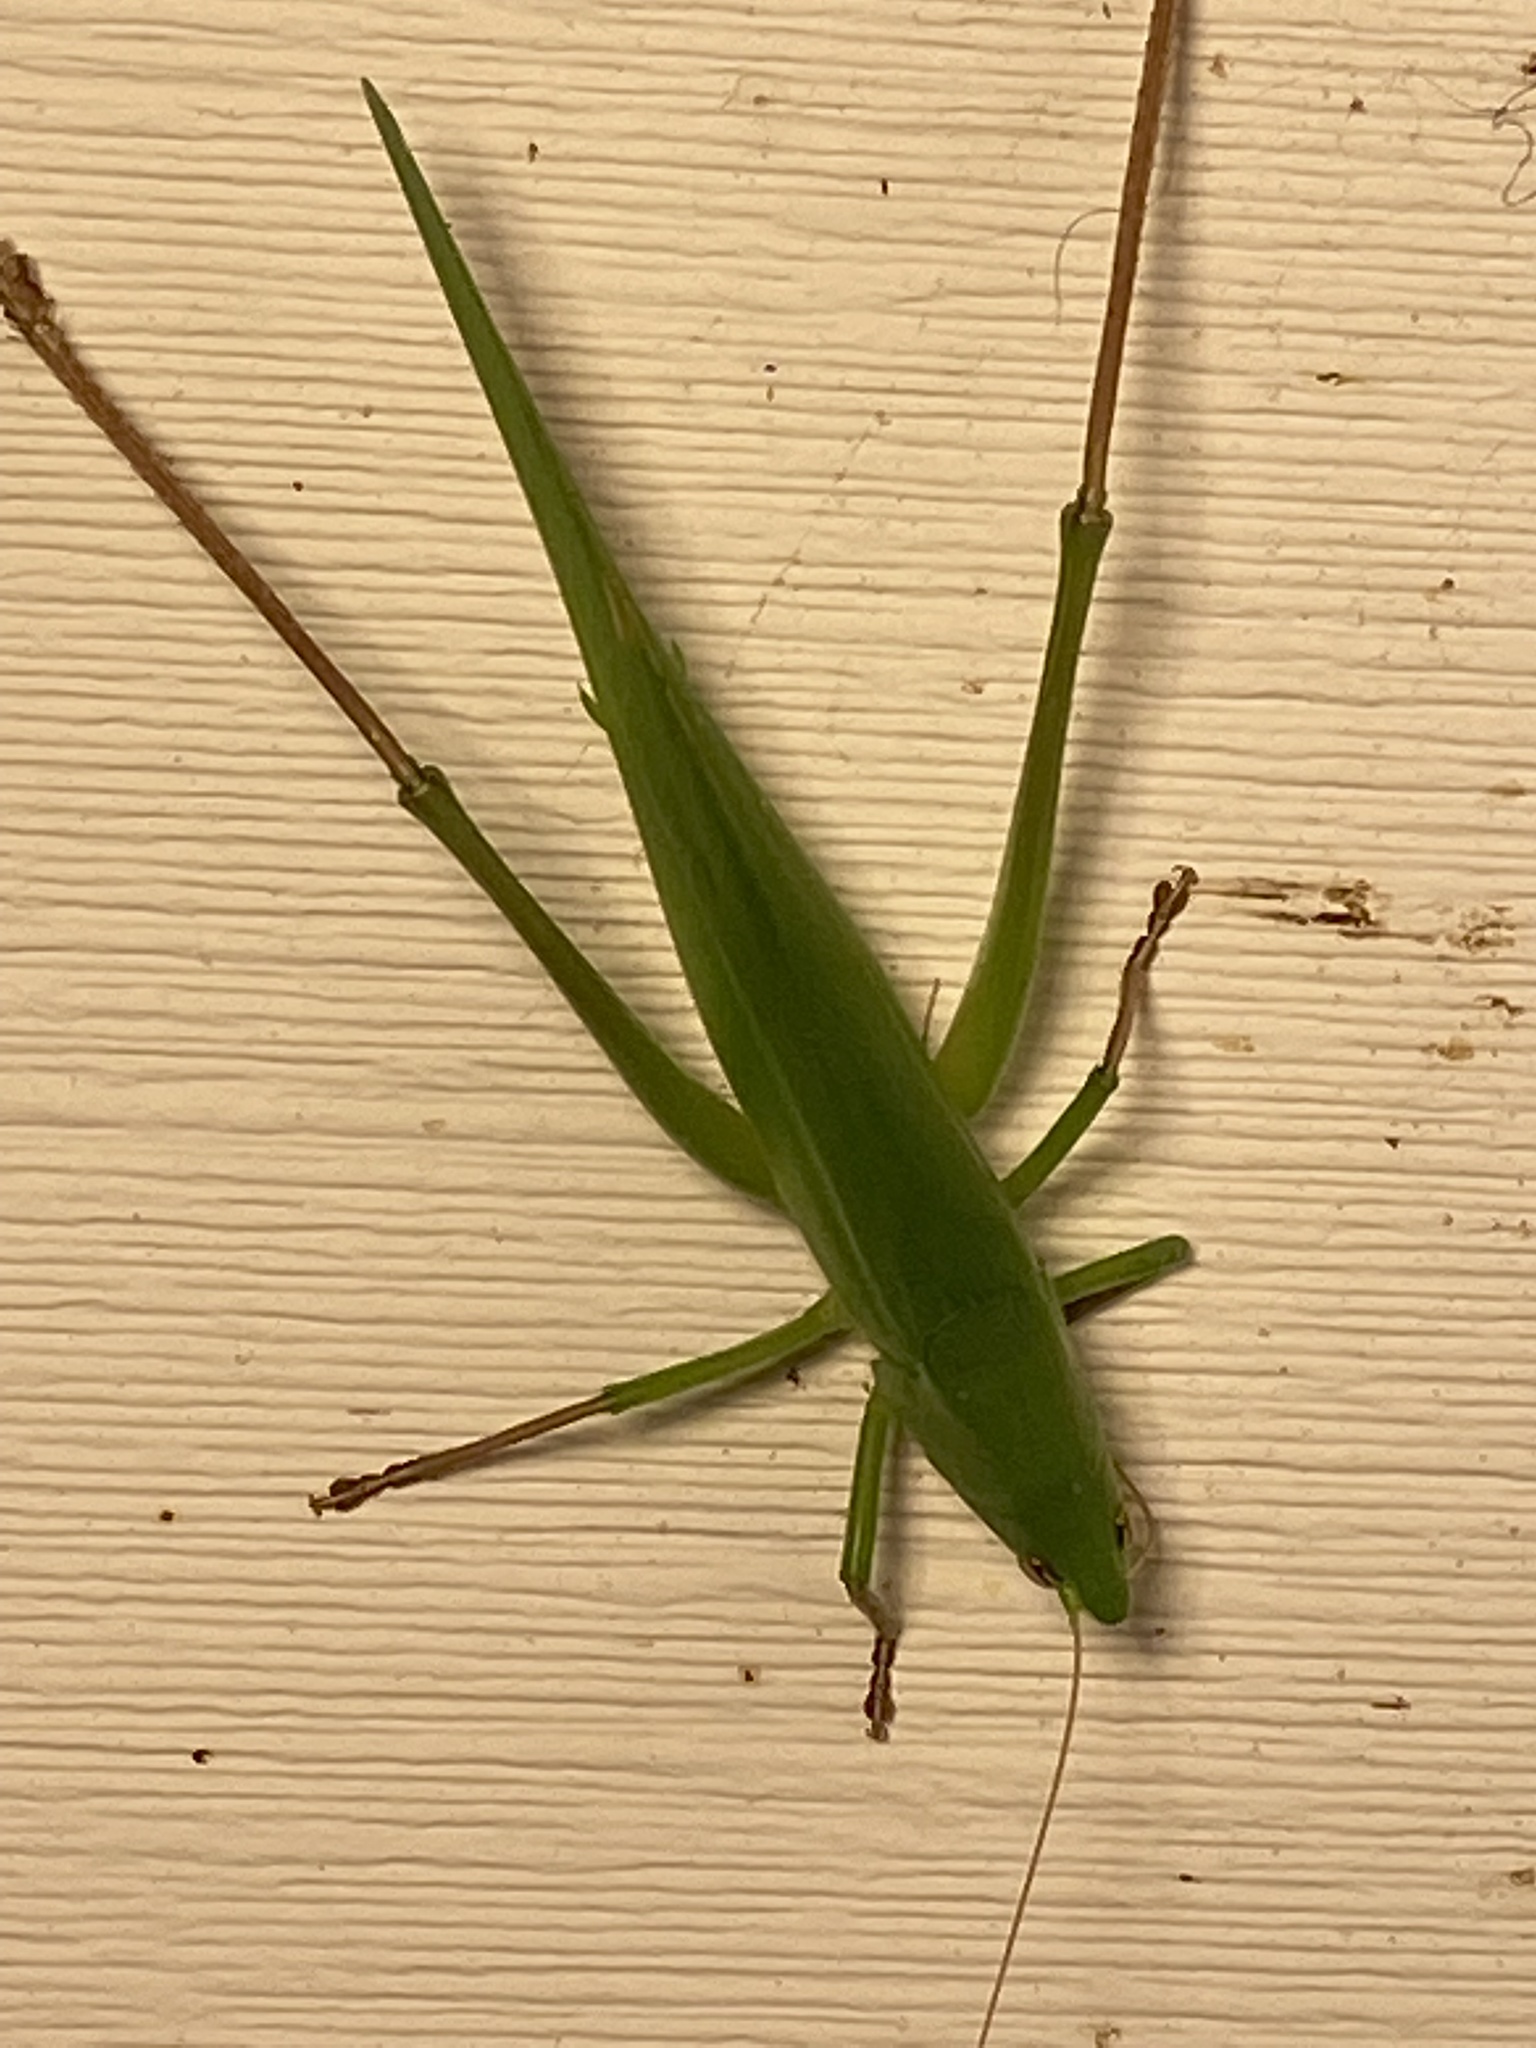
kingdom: Animalia
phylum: Arthropoda
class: Insecta
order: Orthoptera
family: Tettigoniidae
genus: Neoconocephalus
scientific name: Neoconocephalus triops
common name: Broad-tipped conehead
